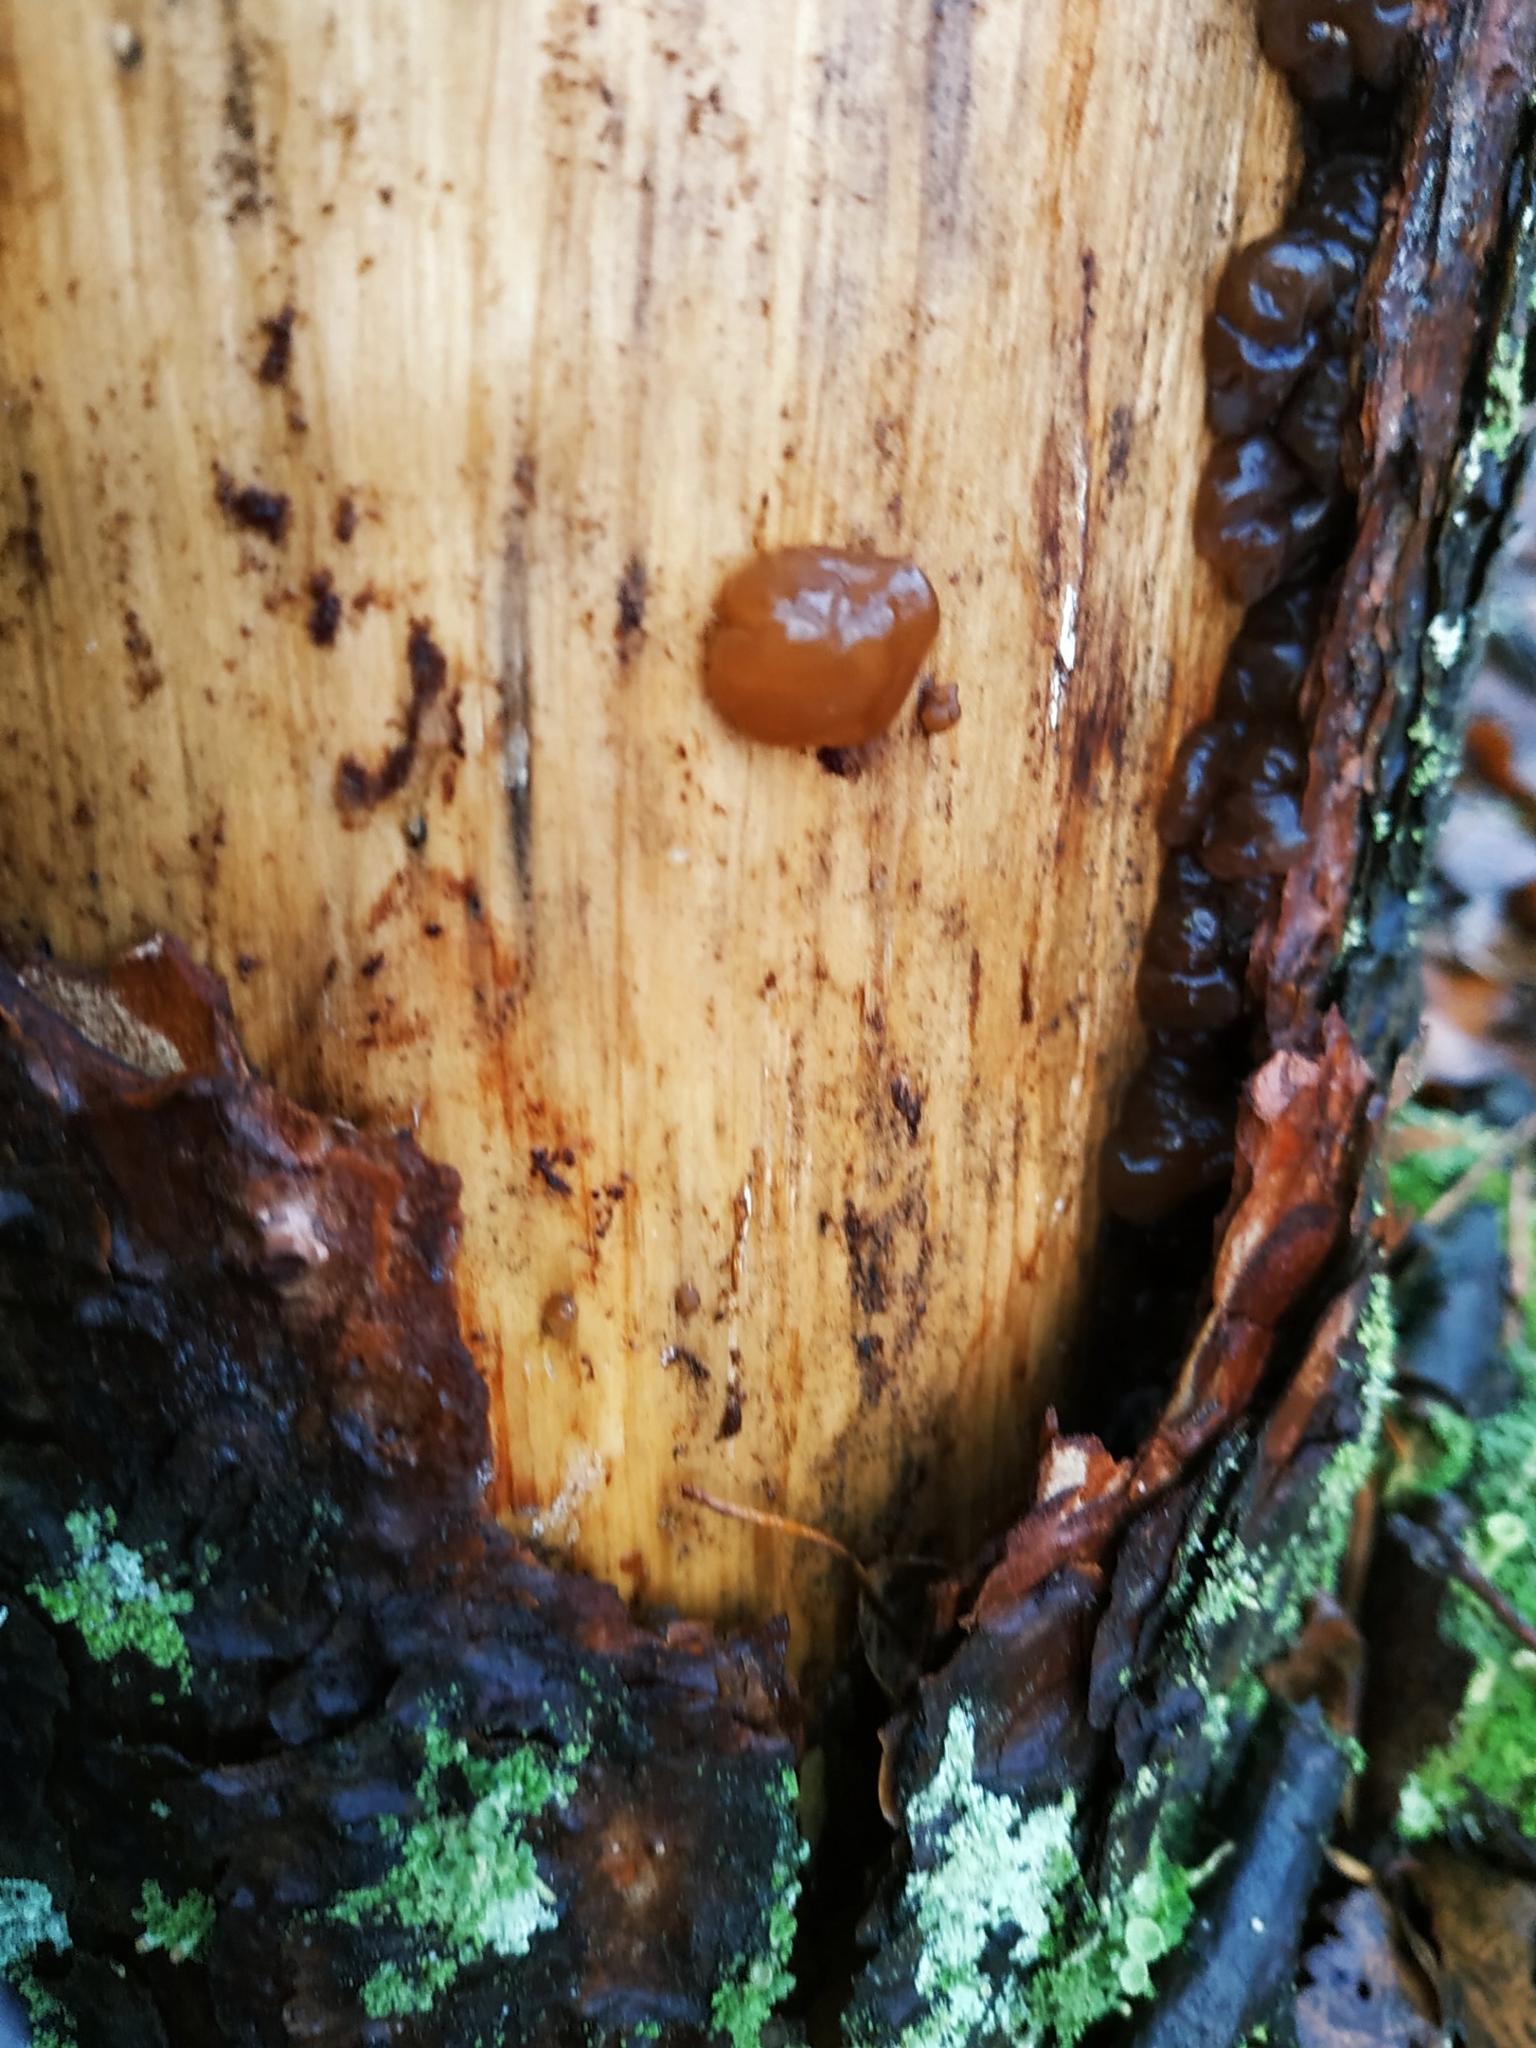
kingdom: Fungi
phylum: Basidiomycota
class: Agaricomycetes
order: Auriculariales
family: Auriculariaceae
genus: Exidia
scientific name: Exidia saccharina
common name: Pine jelly
